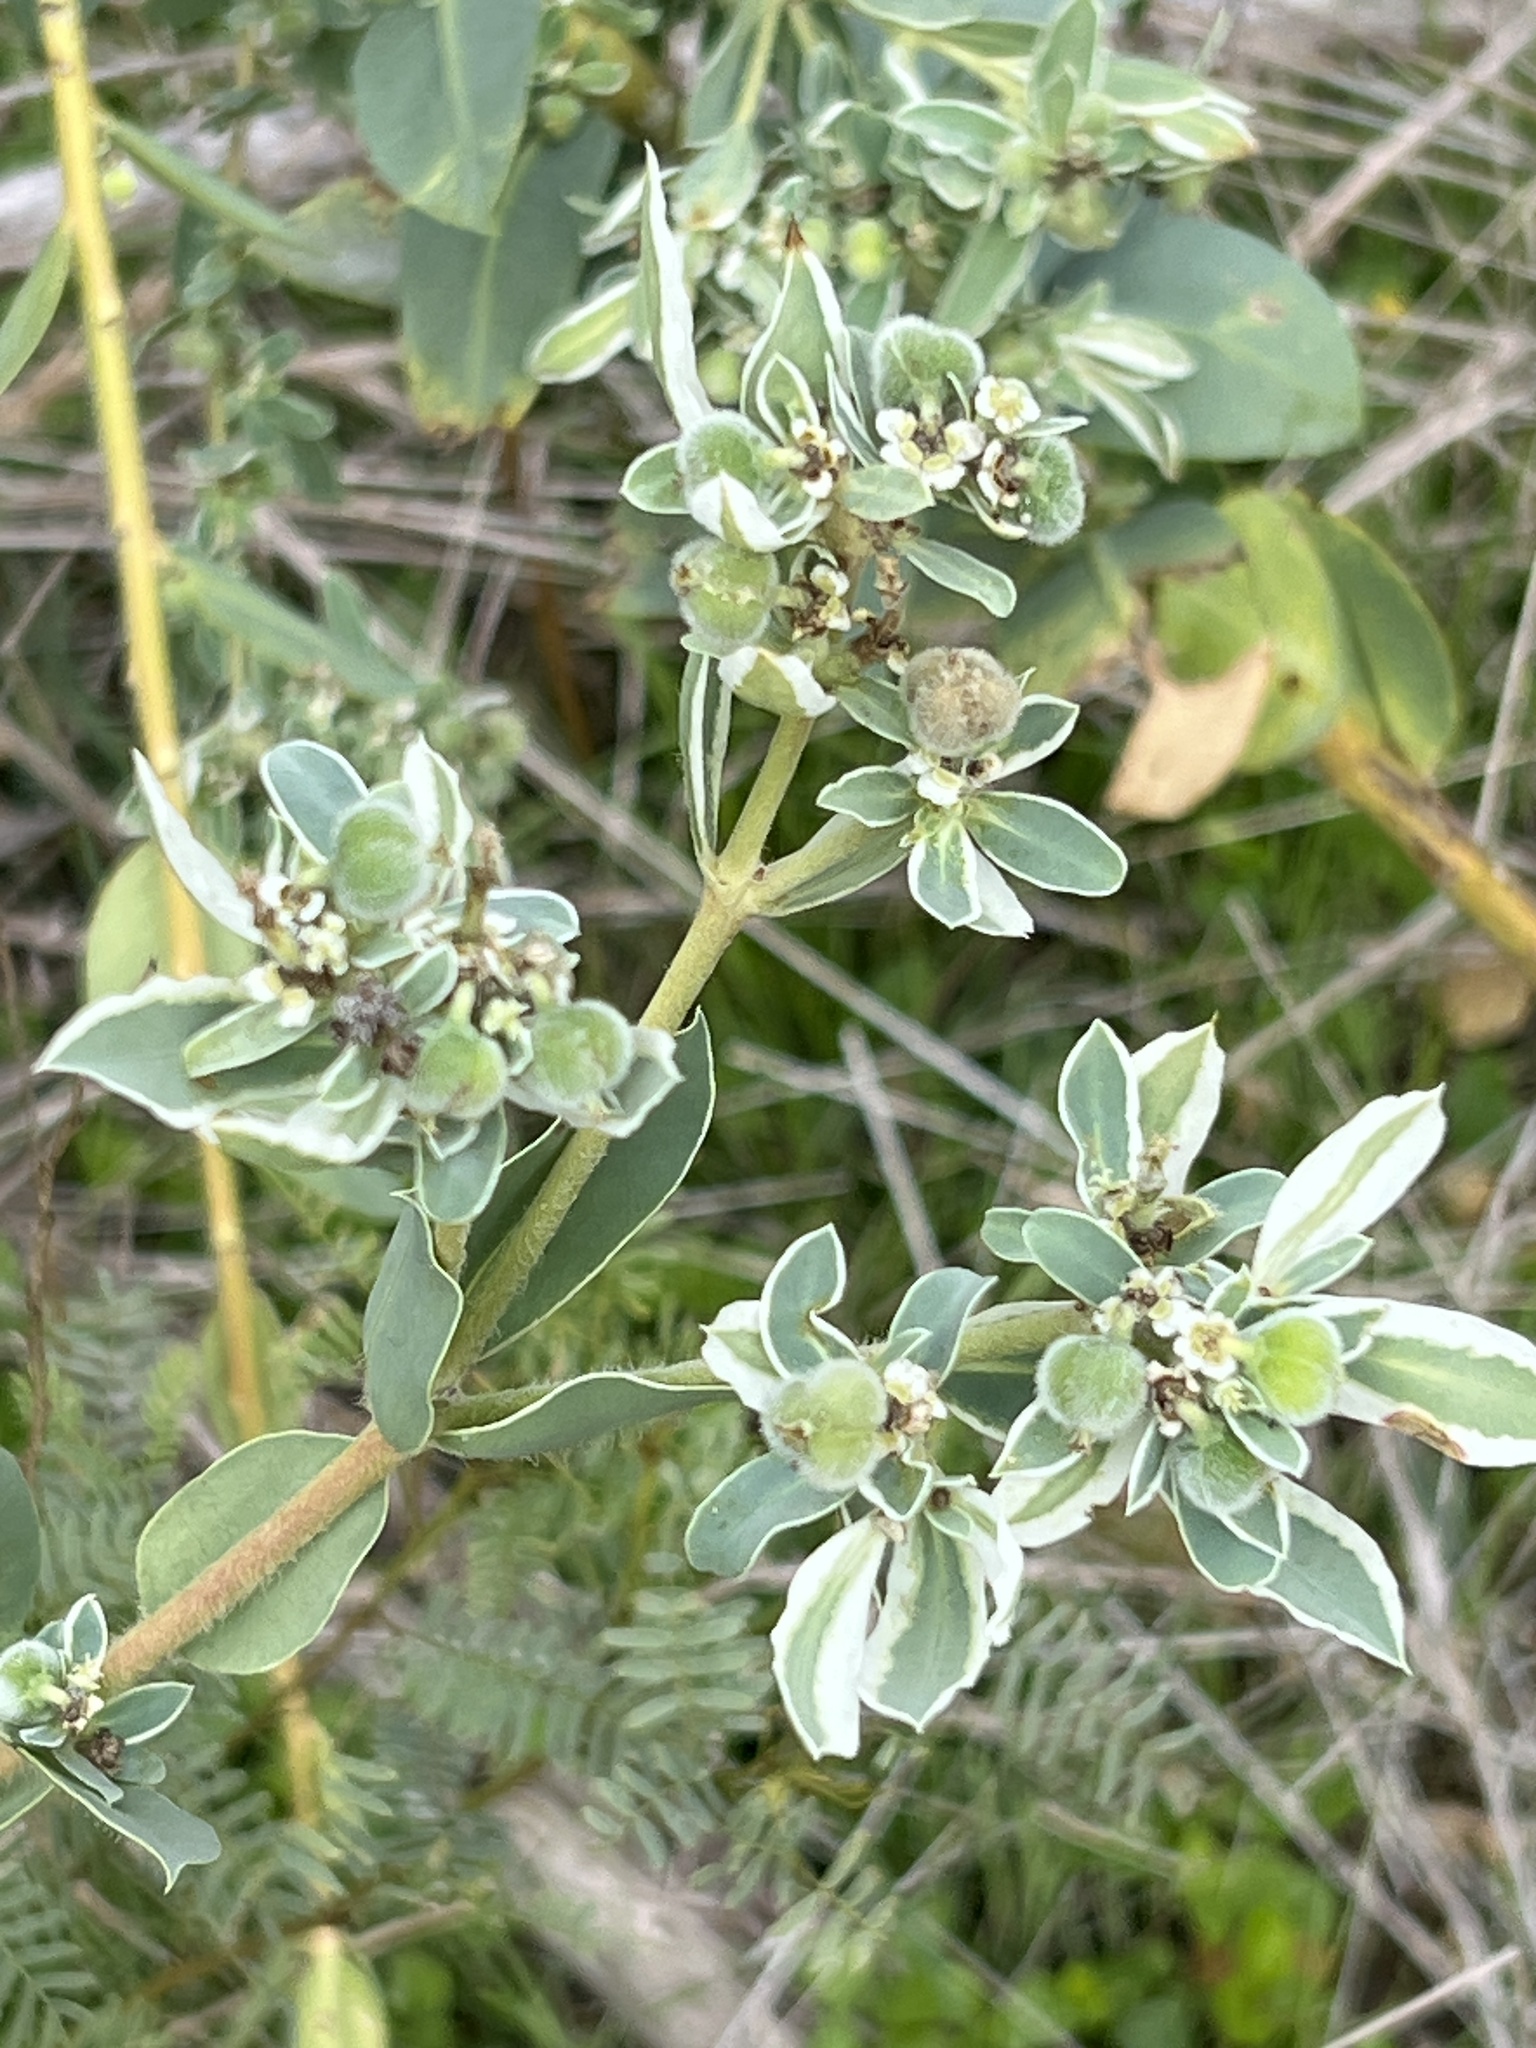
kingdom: Plantae
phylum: Tracheophyta
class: Magnoliopsida
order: Malpighiales
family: Euphorbiaceae
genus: Euphorbia
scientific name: Euphorbia marginata
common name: Ghostweed
